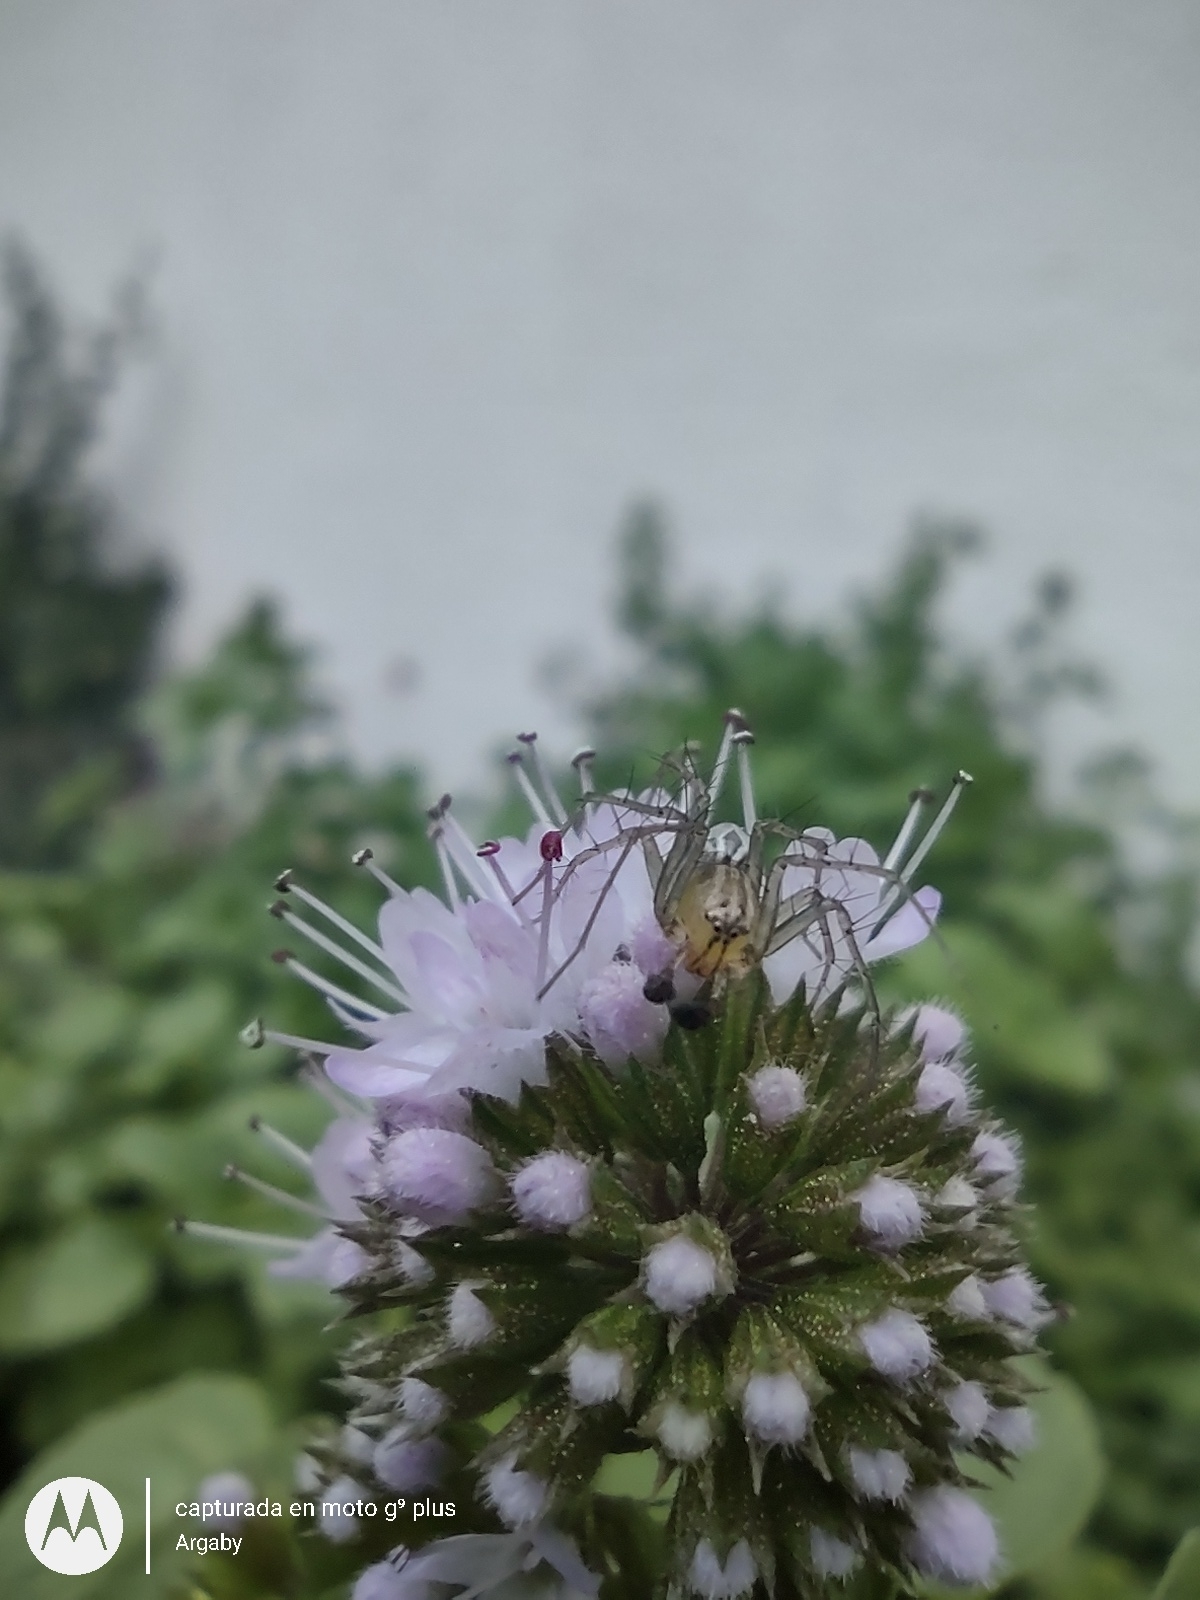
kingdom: Animalia
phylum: Arthropoda
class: Arachnida
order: Araneae
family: Oxyopidae
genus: Oxyopes
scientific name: Oxyopes salticus
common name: Lynx spiders
